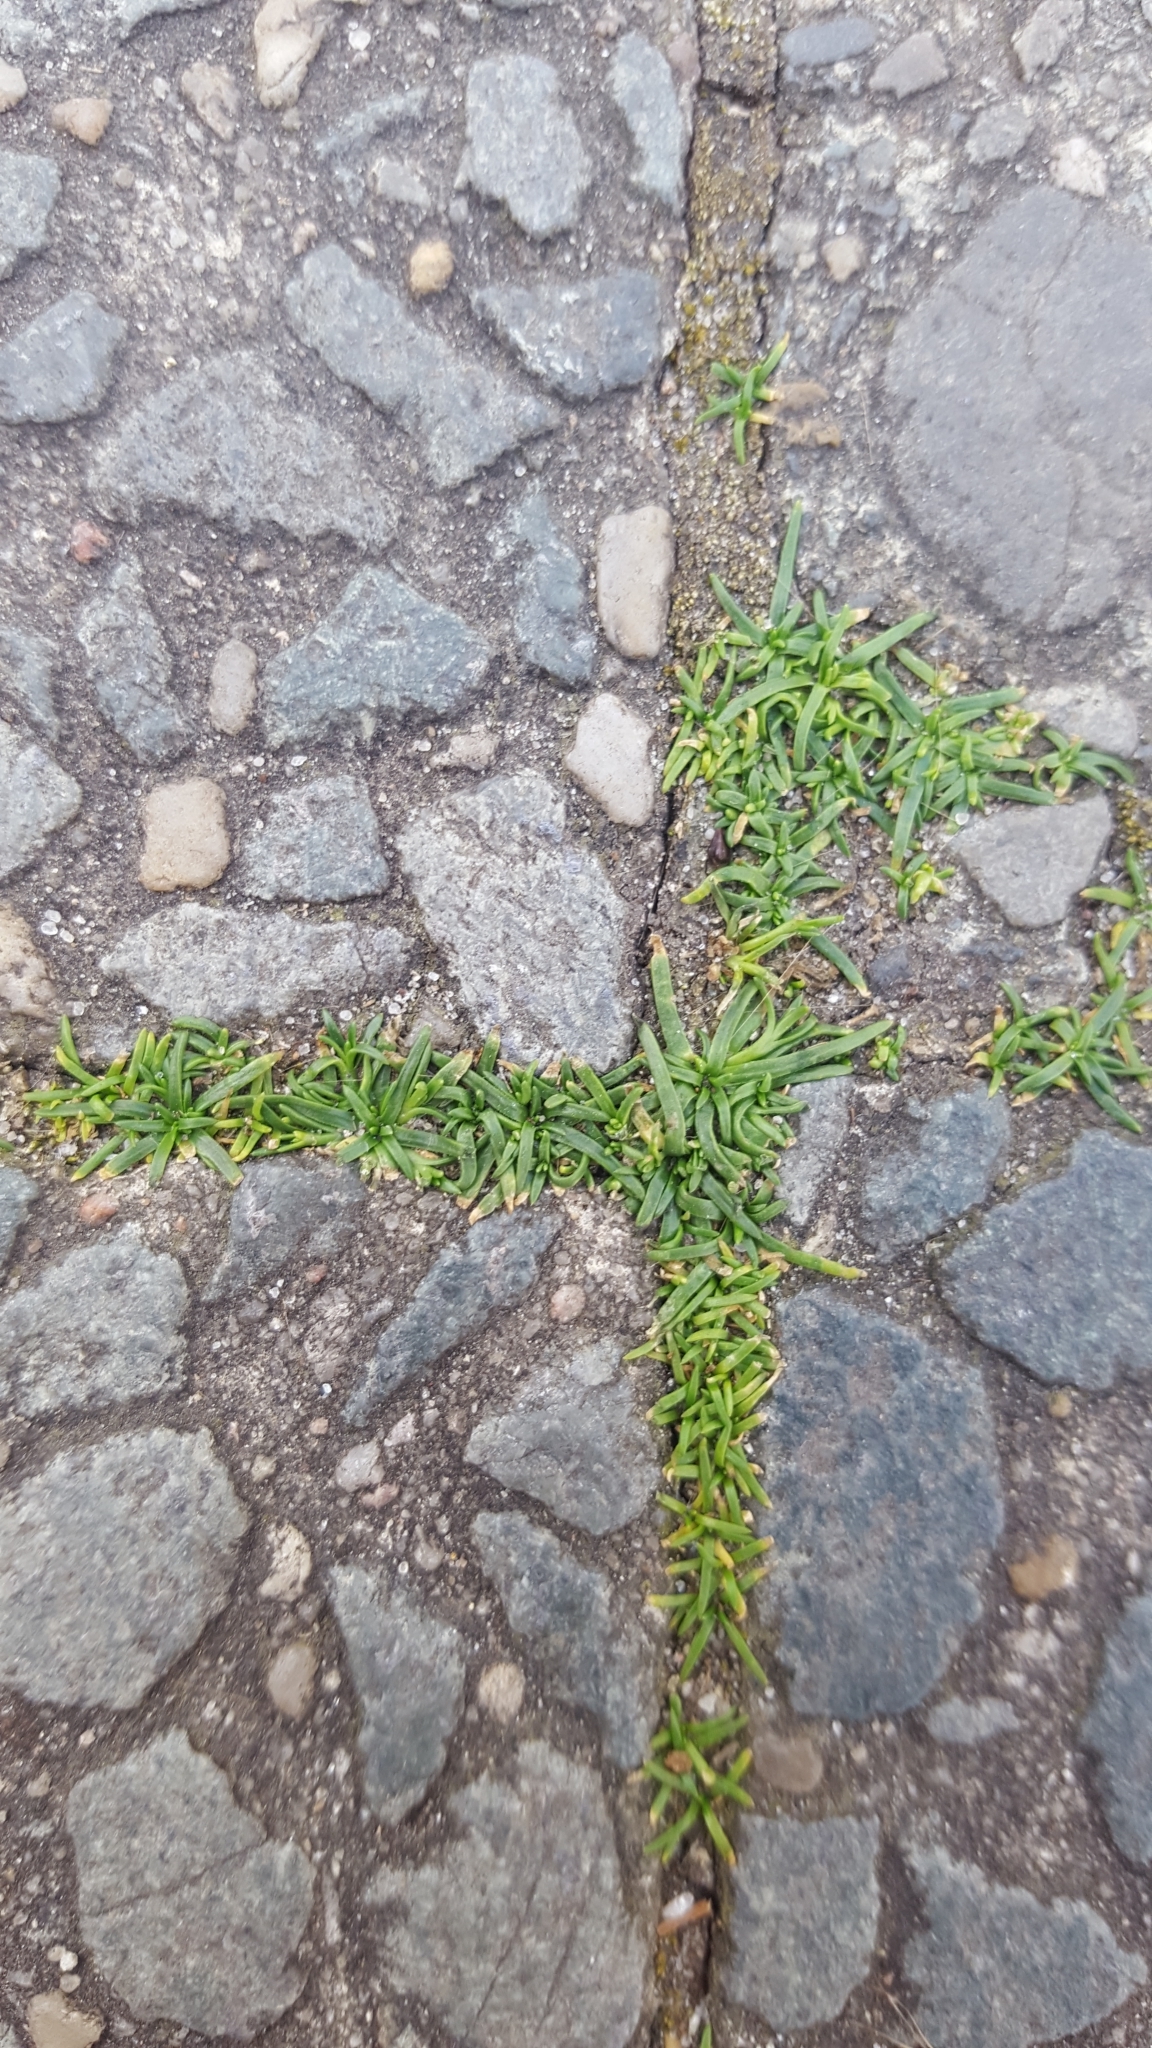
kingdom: Plantae
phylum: Tracheophyta
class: Magnoliopsida
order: Caryophyllales
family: Caryophyllaceae
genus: Sagina
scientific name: Sagina procumbens
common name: Procumbent pearlwort
